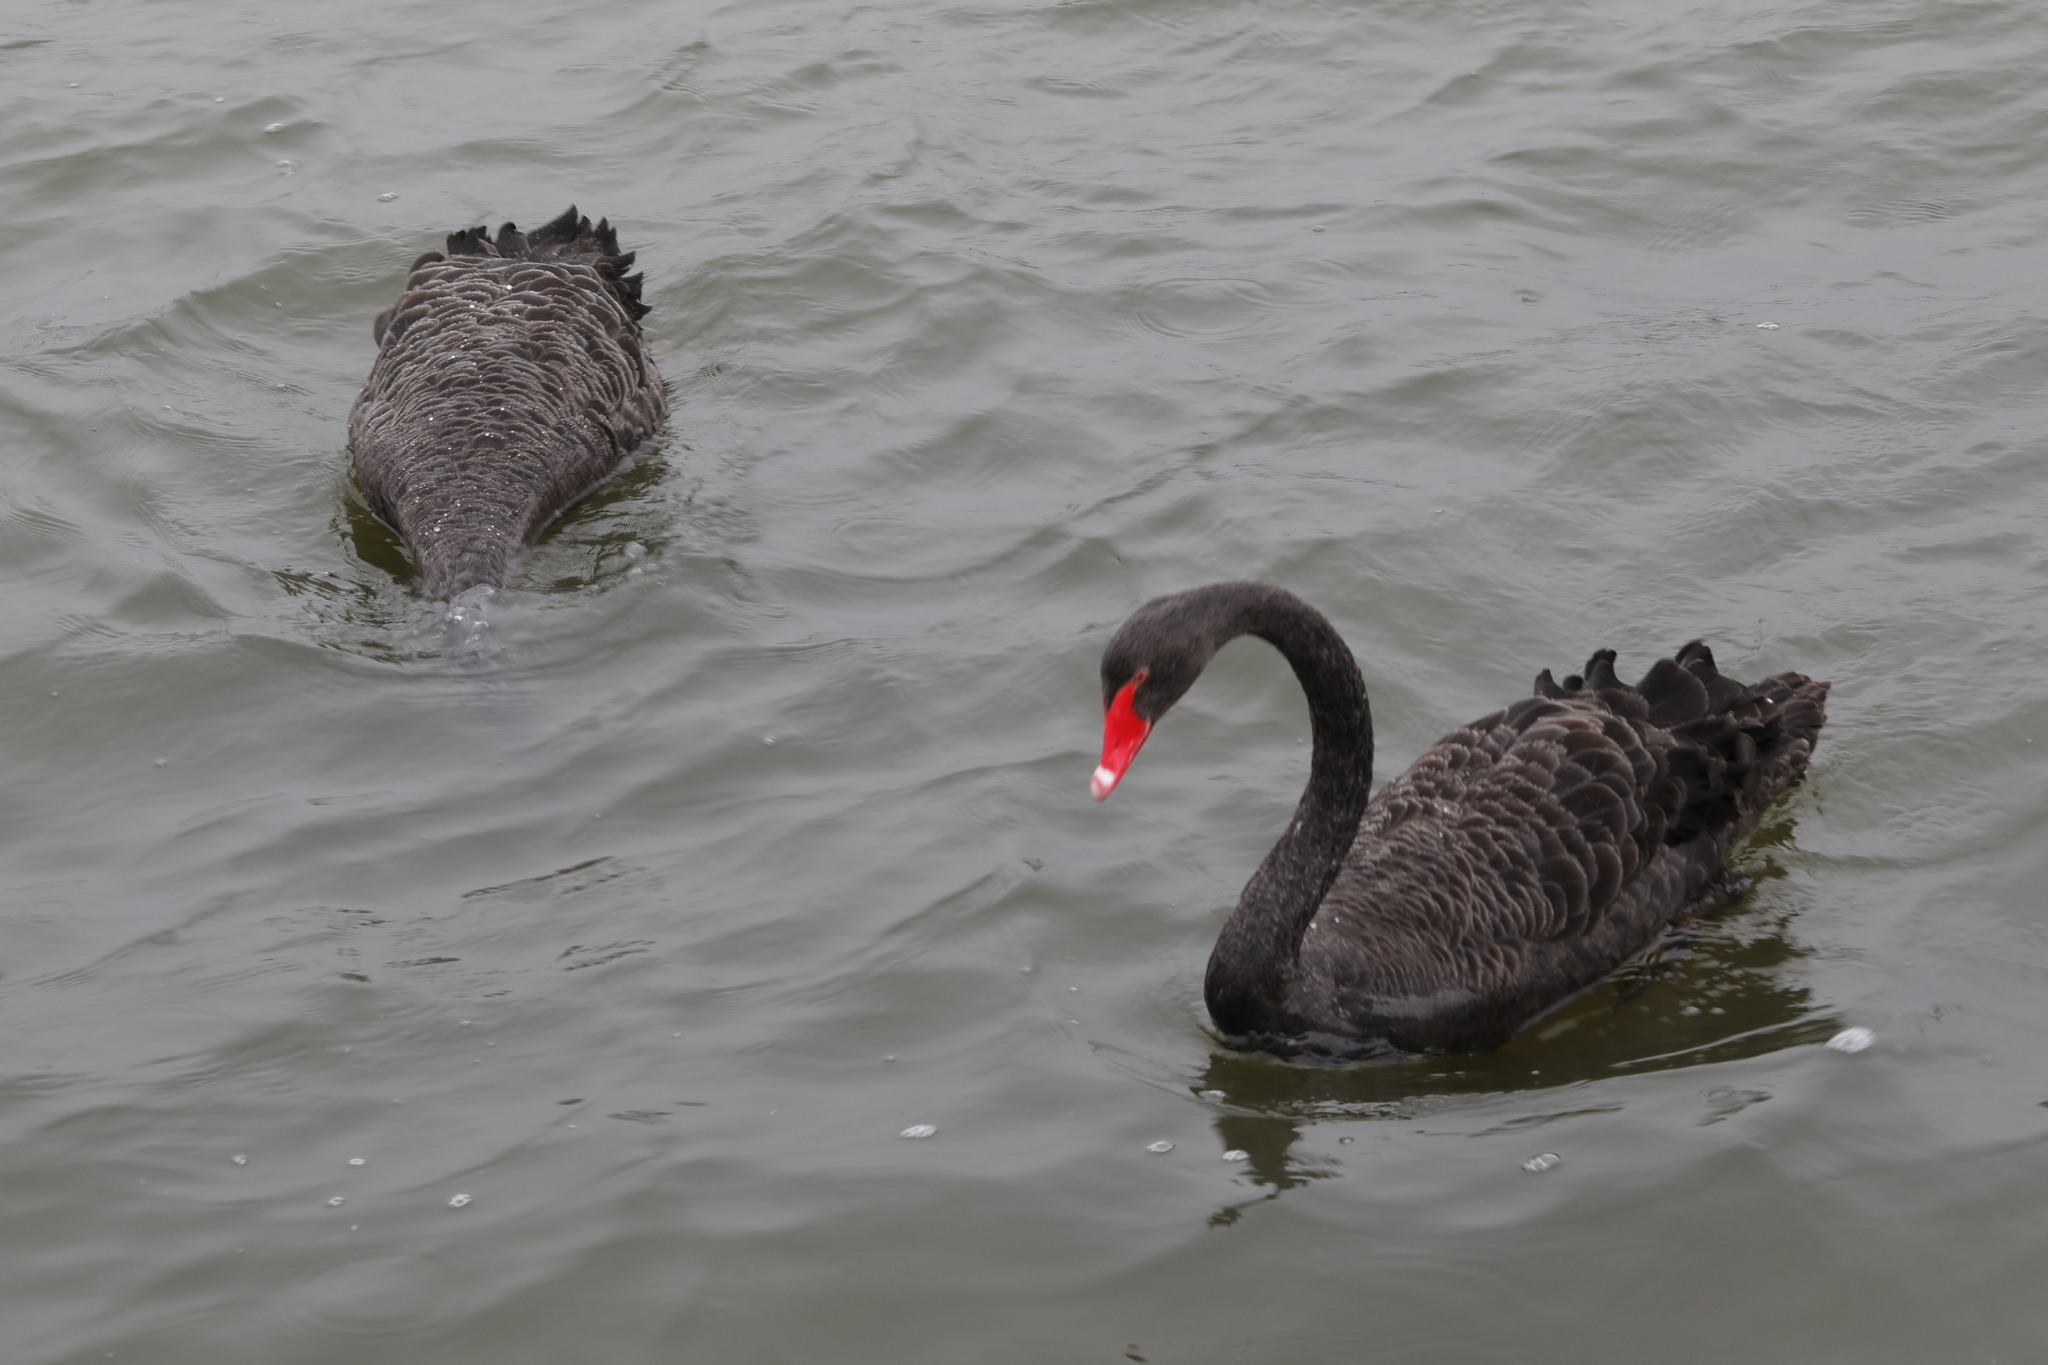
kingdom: Animalia
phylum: Chordata
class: Aves
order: Anseriformes
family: Anatidae
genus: Cygnus
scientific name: Cygnus atratus
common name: Black swan
